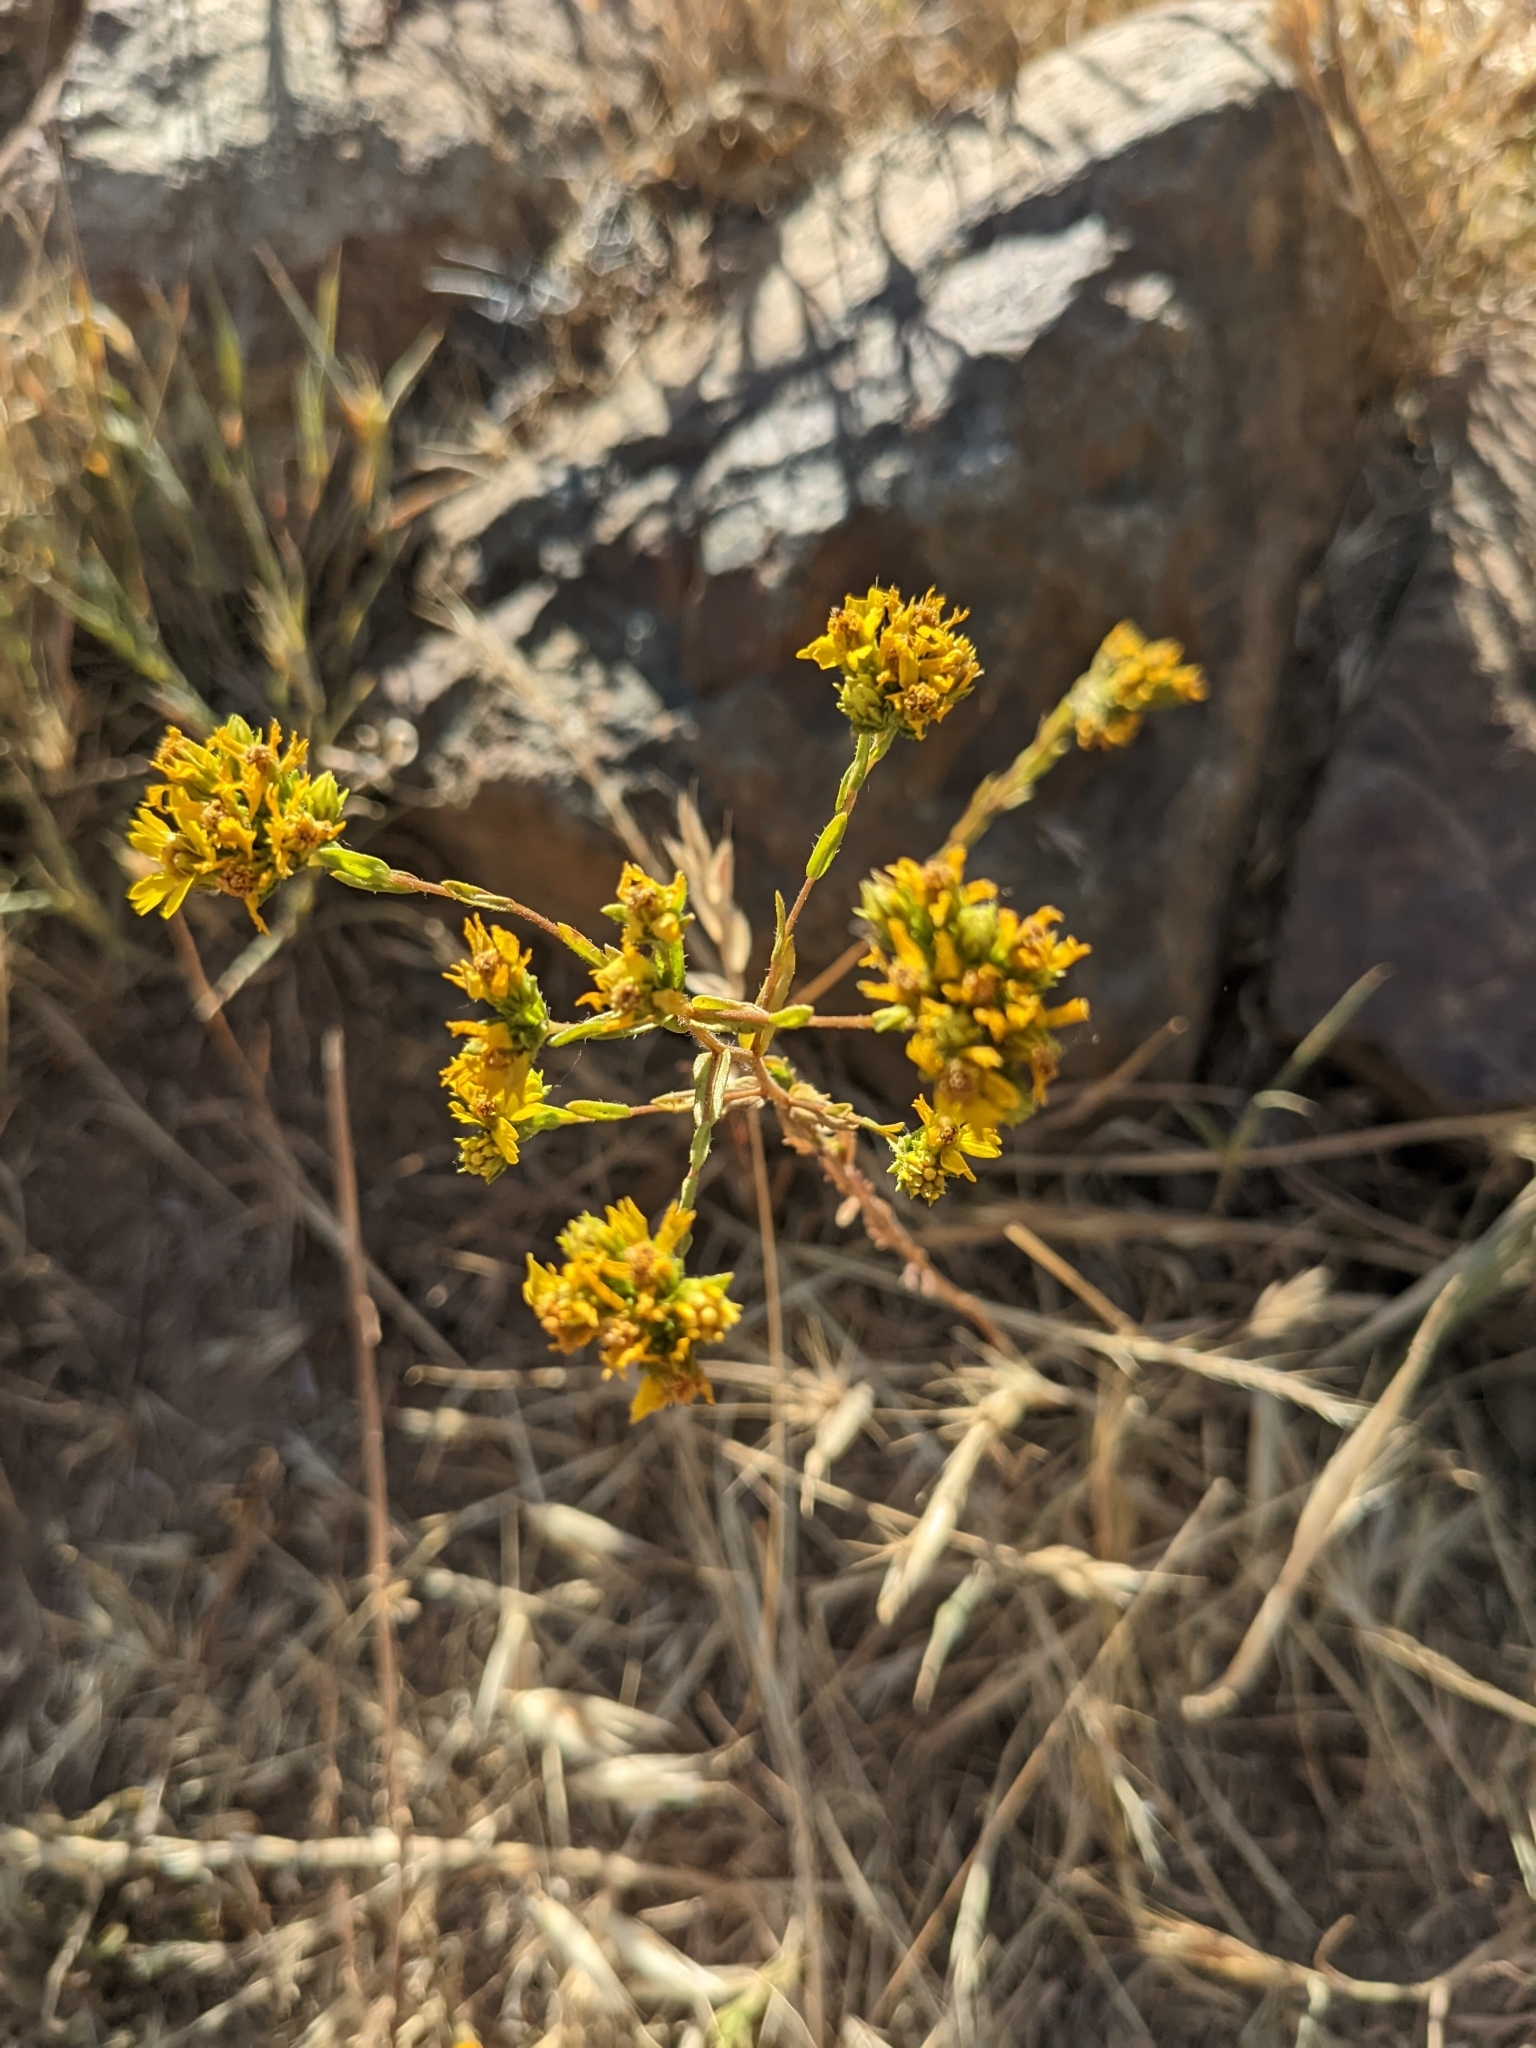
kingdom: Plantae
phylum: Tracheophyta
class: Magnoliopsida
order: Asterales
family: Asteraceae
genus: Deinandra
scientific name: Deinandra fasciculata
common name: Clustered tarweed
